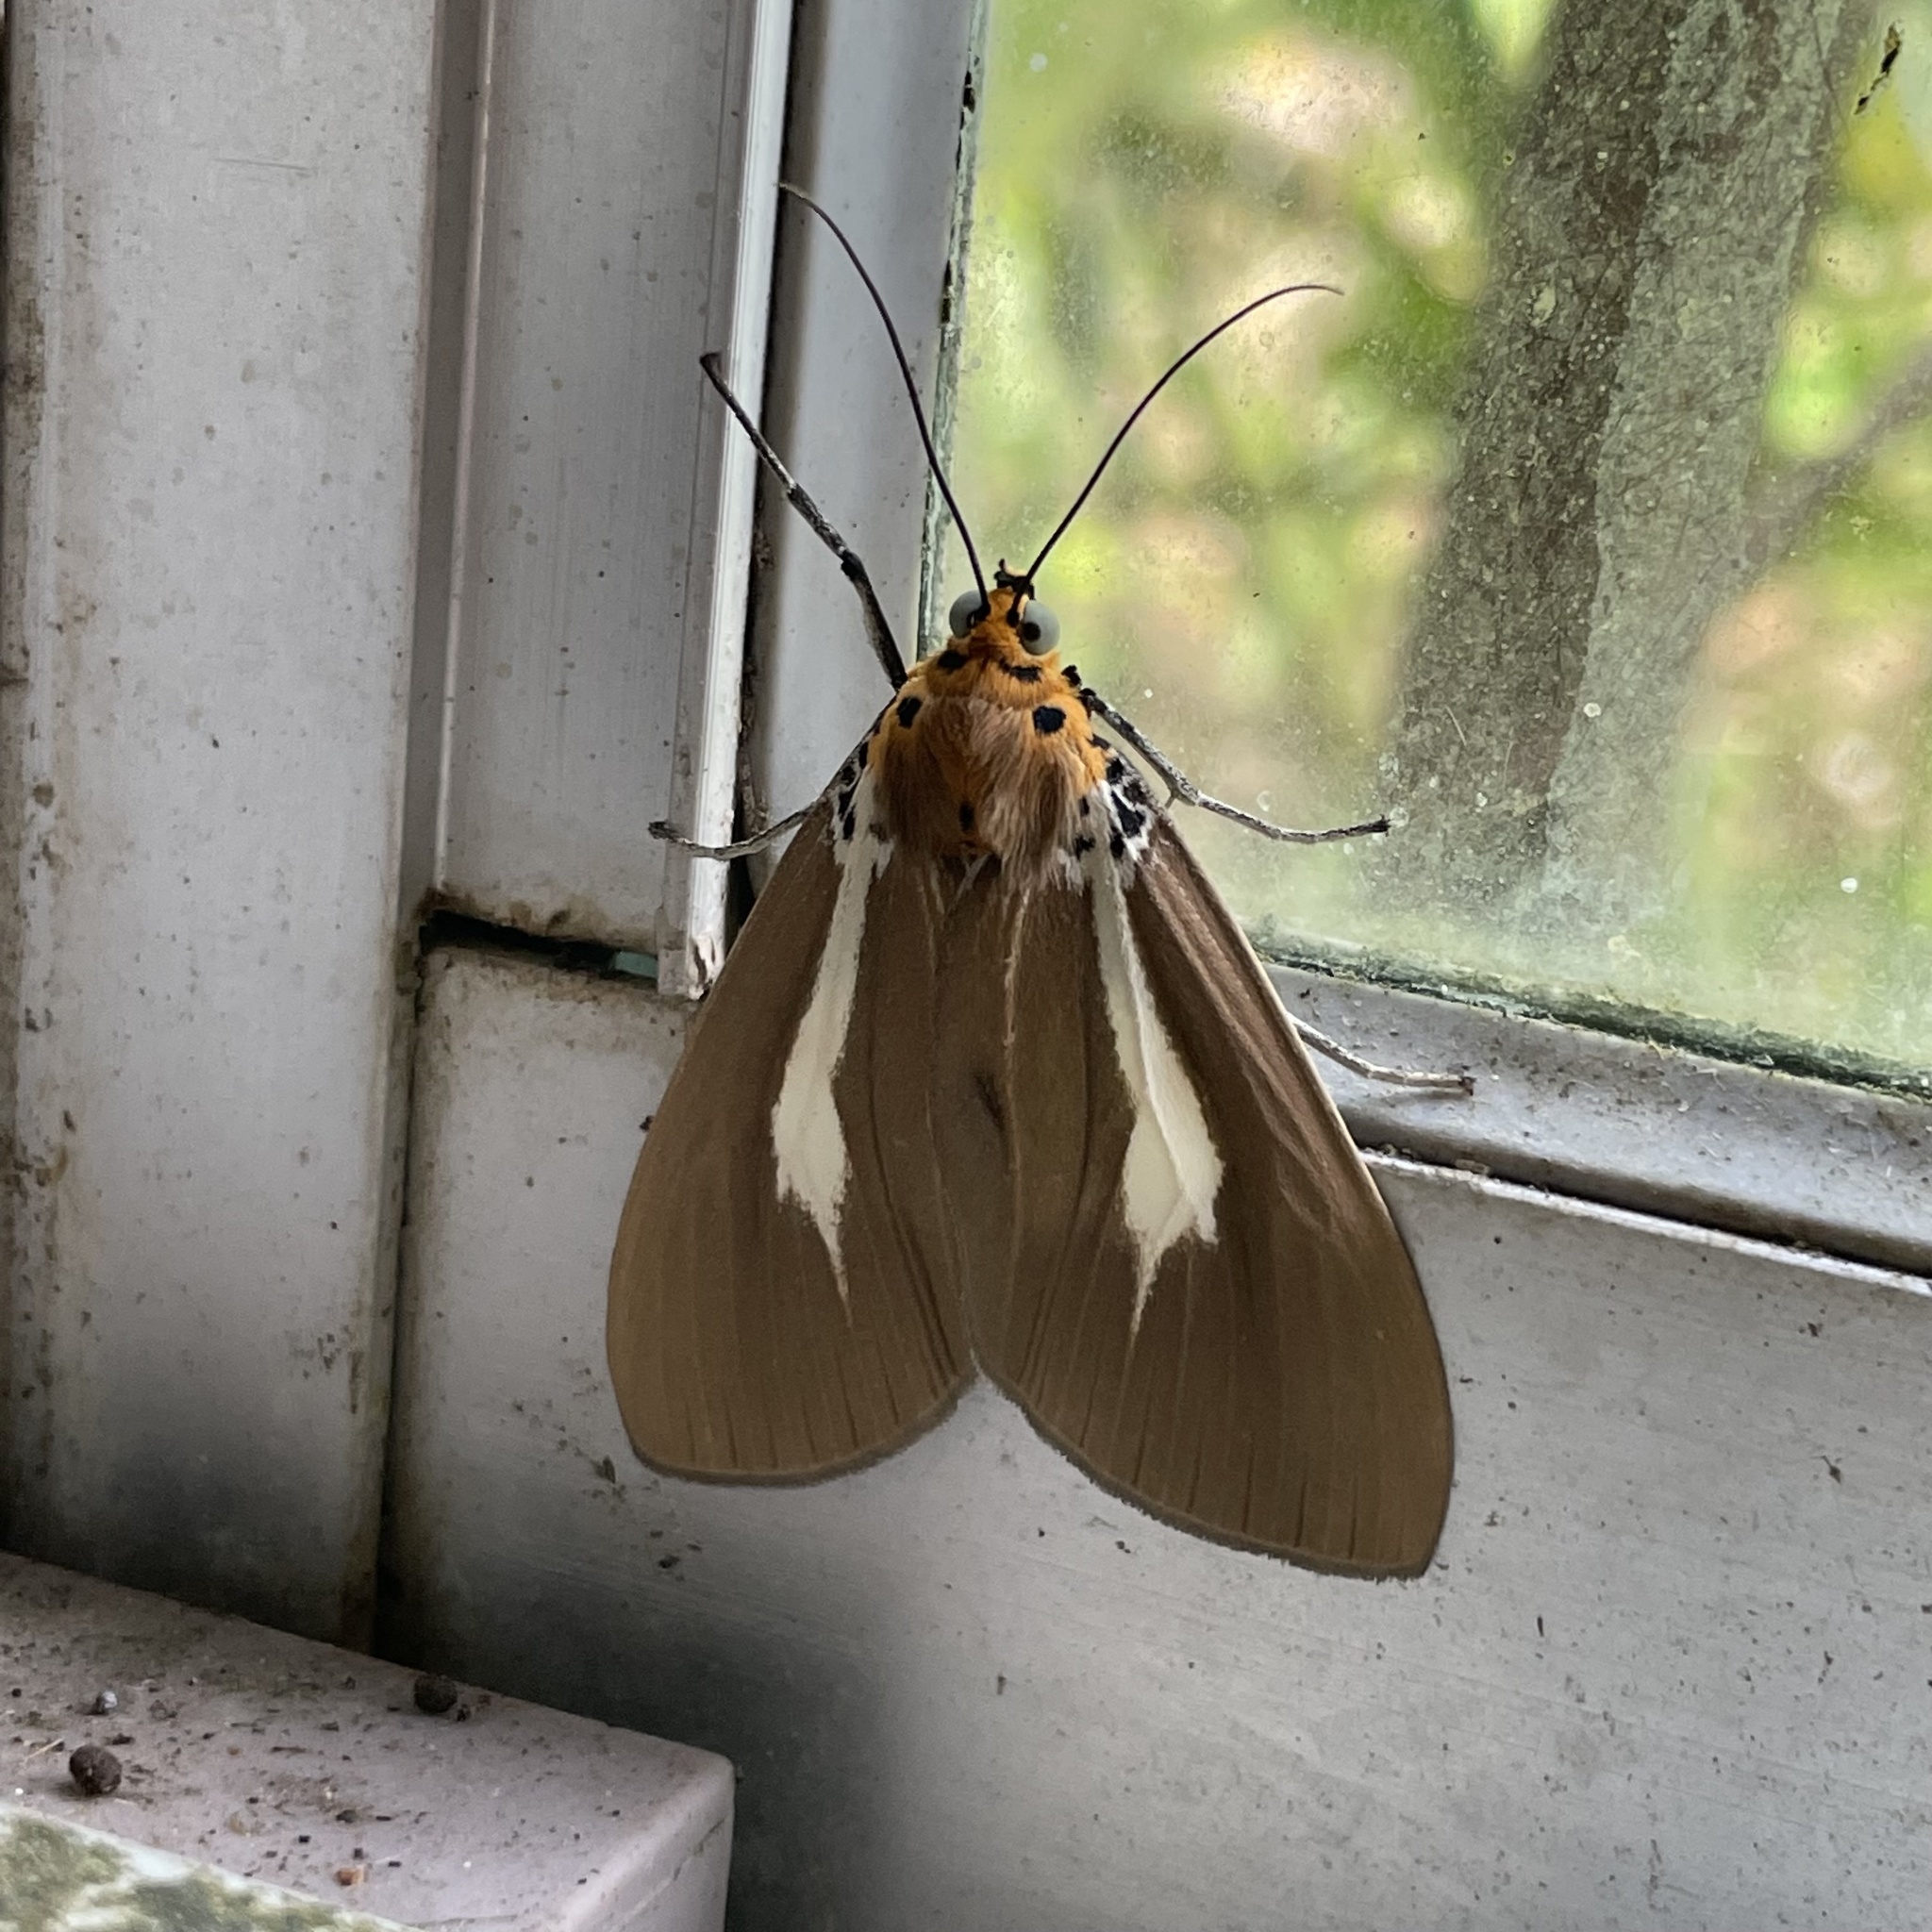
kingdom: Animalia
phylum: Arthropoda
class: Insecta
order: Lepidoptera
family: Erebidae
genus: Asota
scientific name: Asota heliconia
